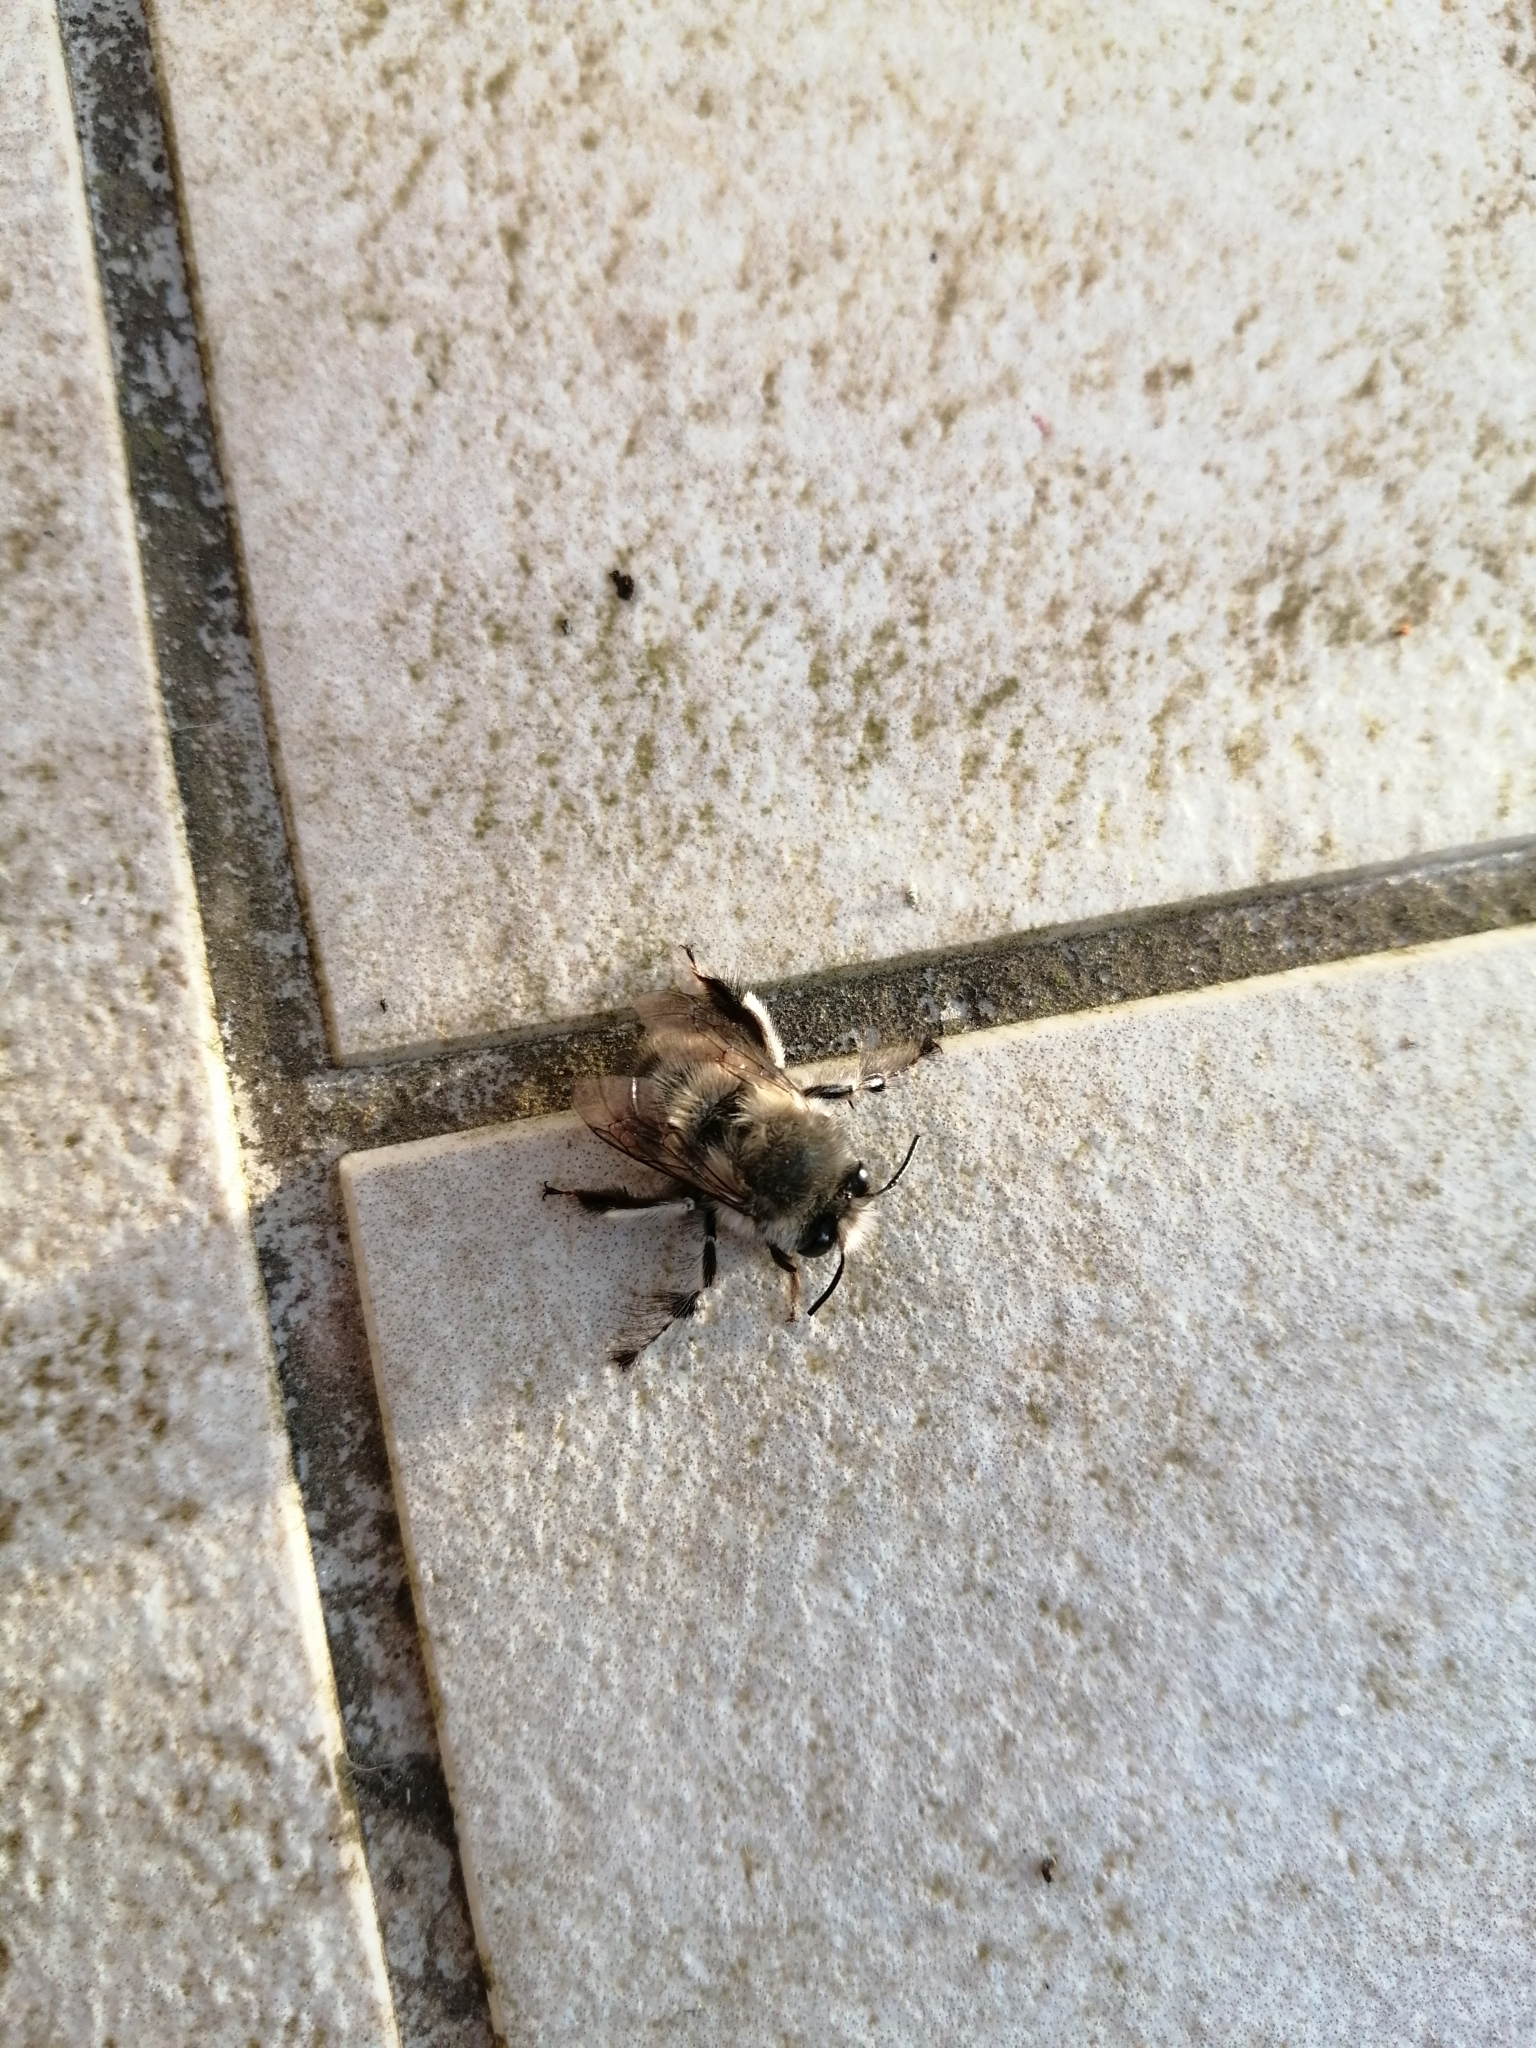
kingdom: Animalia
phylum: Arthropoda
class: Insecta
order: Hymenoptera
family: Apidae
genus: Anthophora
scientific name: Anthophora plumipes
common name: Hairy-footed flower bee
